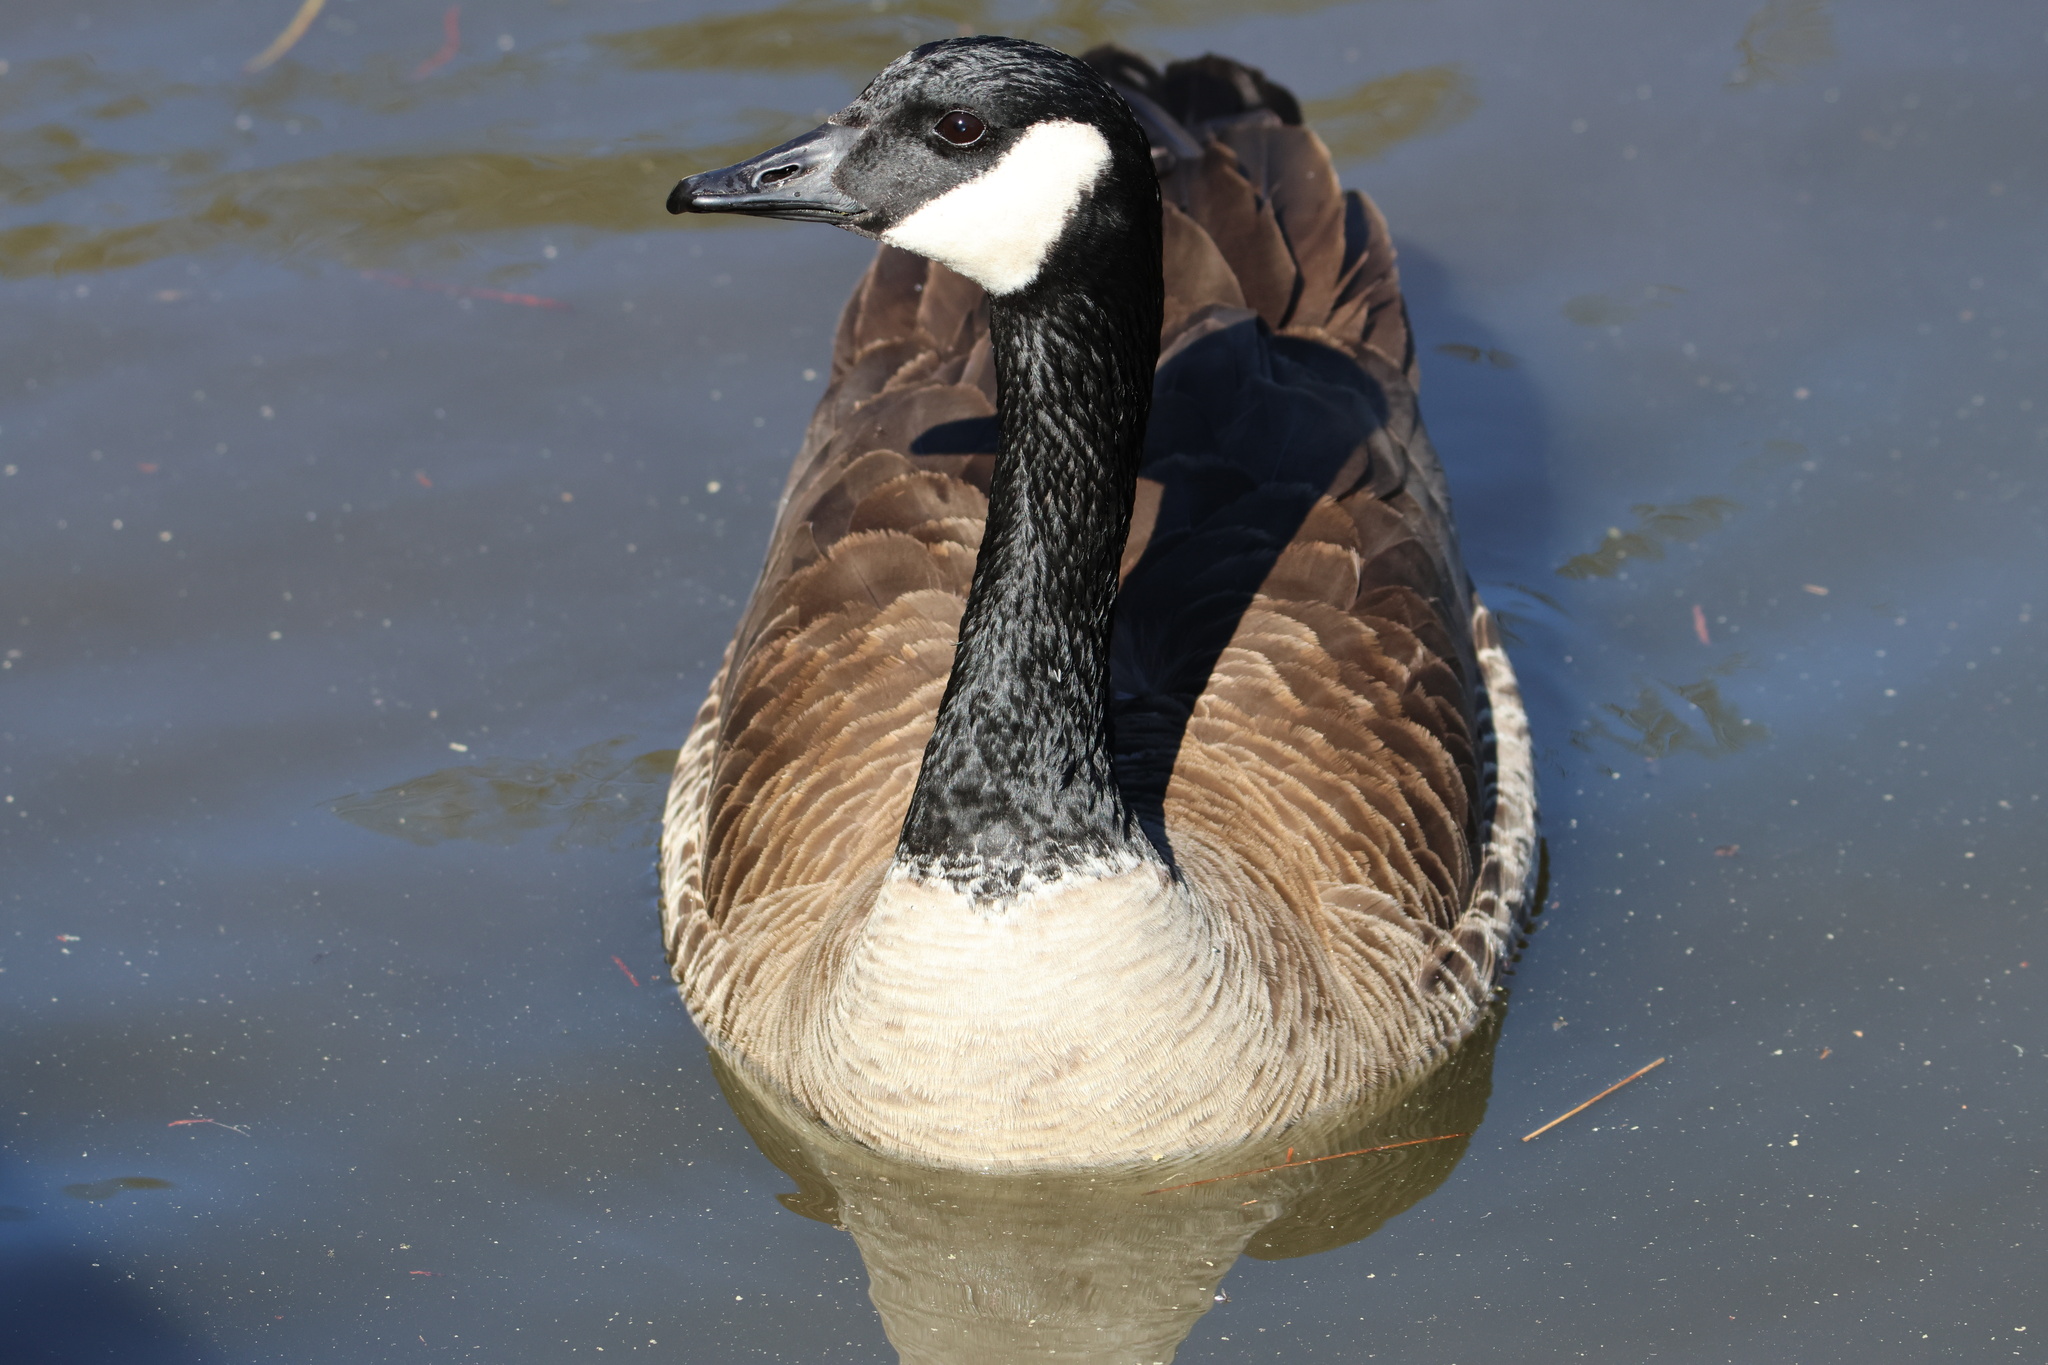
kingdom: Animalia
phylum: Chordata
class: Aves
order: Anseriformes
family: Anatidae
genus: Branta
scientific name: Branta canadensis
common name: Canada goose
